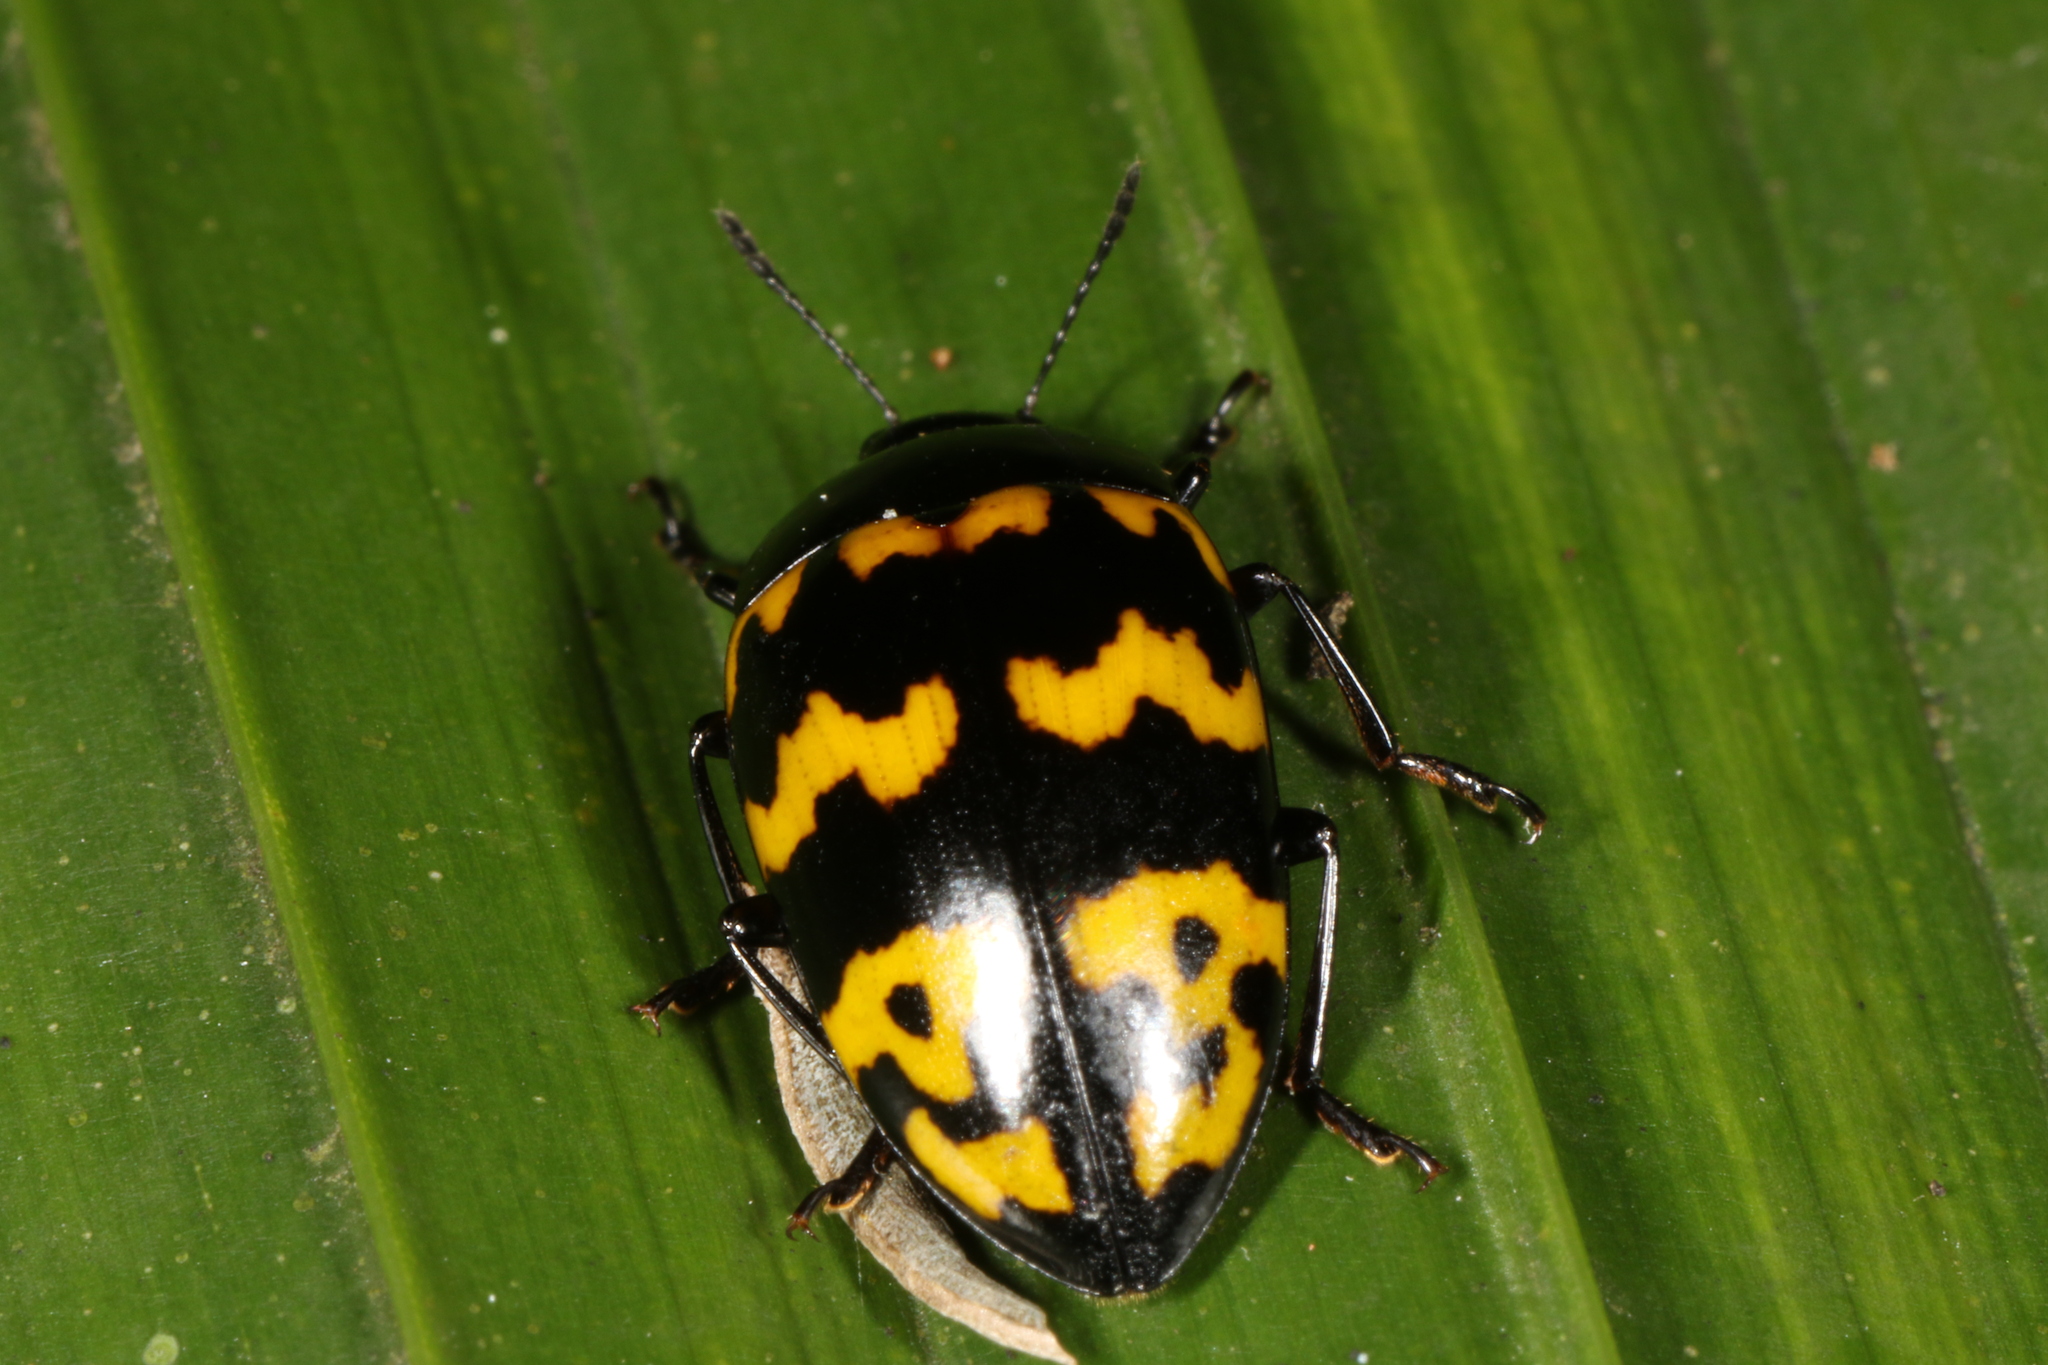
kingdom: Animalia
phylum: Arthropoda
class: Insecta
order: Coleoptera
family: Erotylidae
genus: Iphiclus
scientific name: Iphiclus
